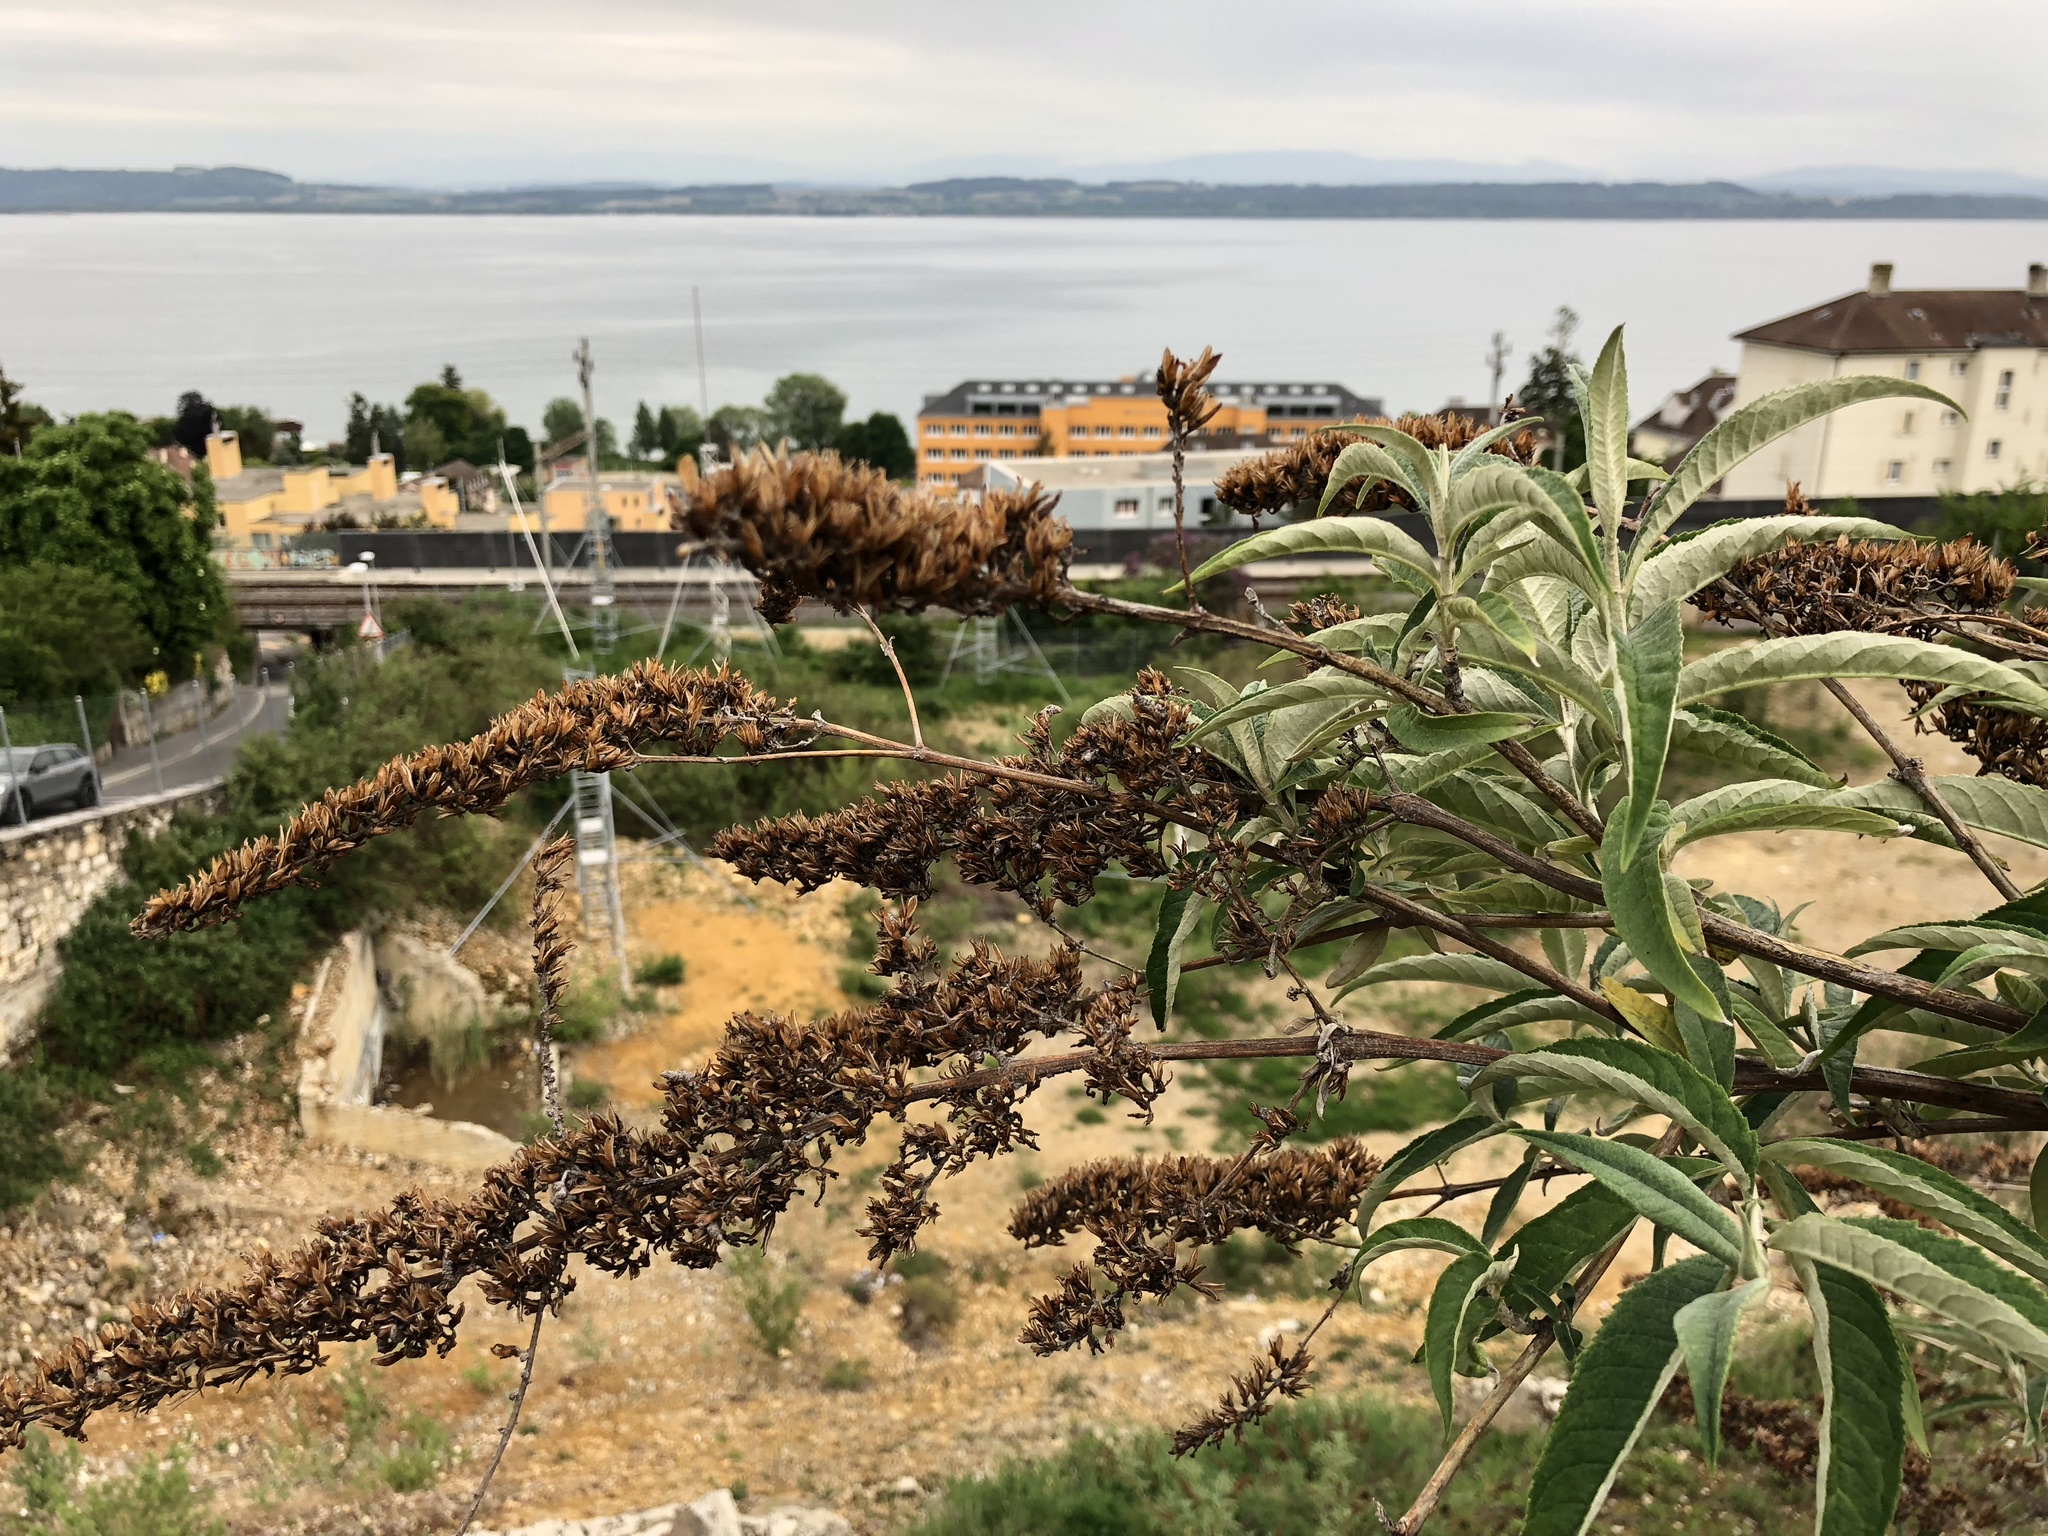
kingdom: Plantae
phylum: Tracheophyta
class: Magnoliopsida
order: Lamiales
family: Scrophulariaceae
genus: Buddleja
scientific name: Buddleja davidii
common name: Butterfly-bush
